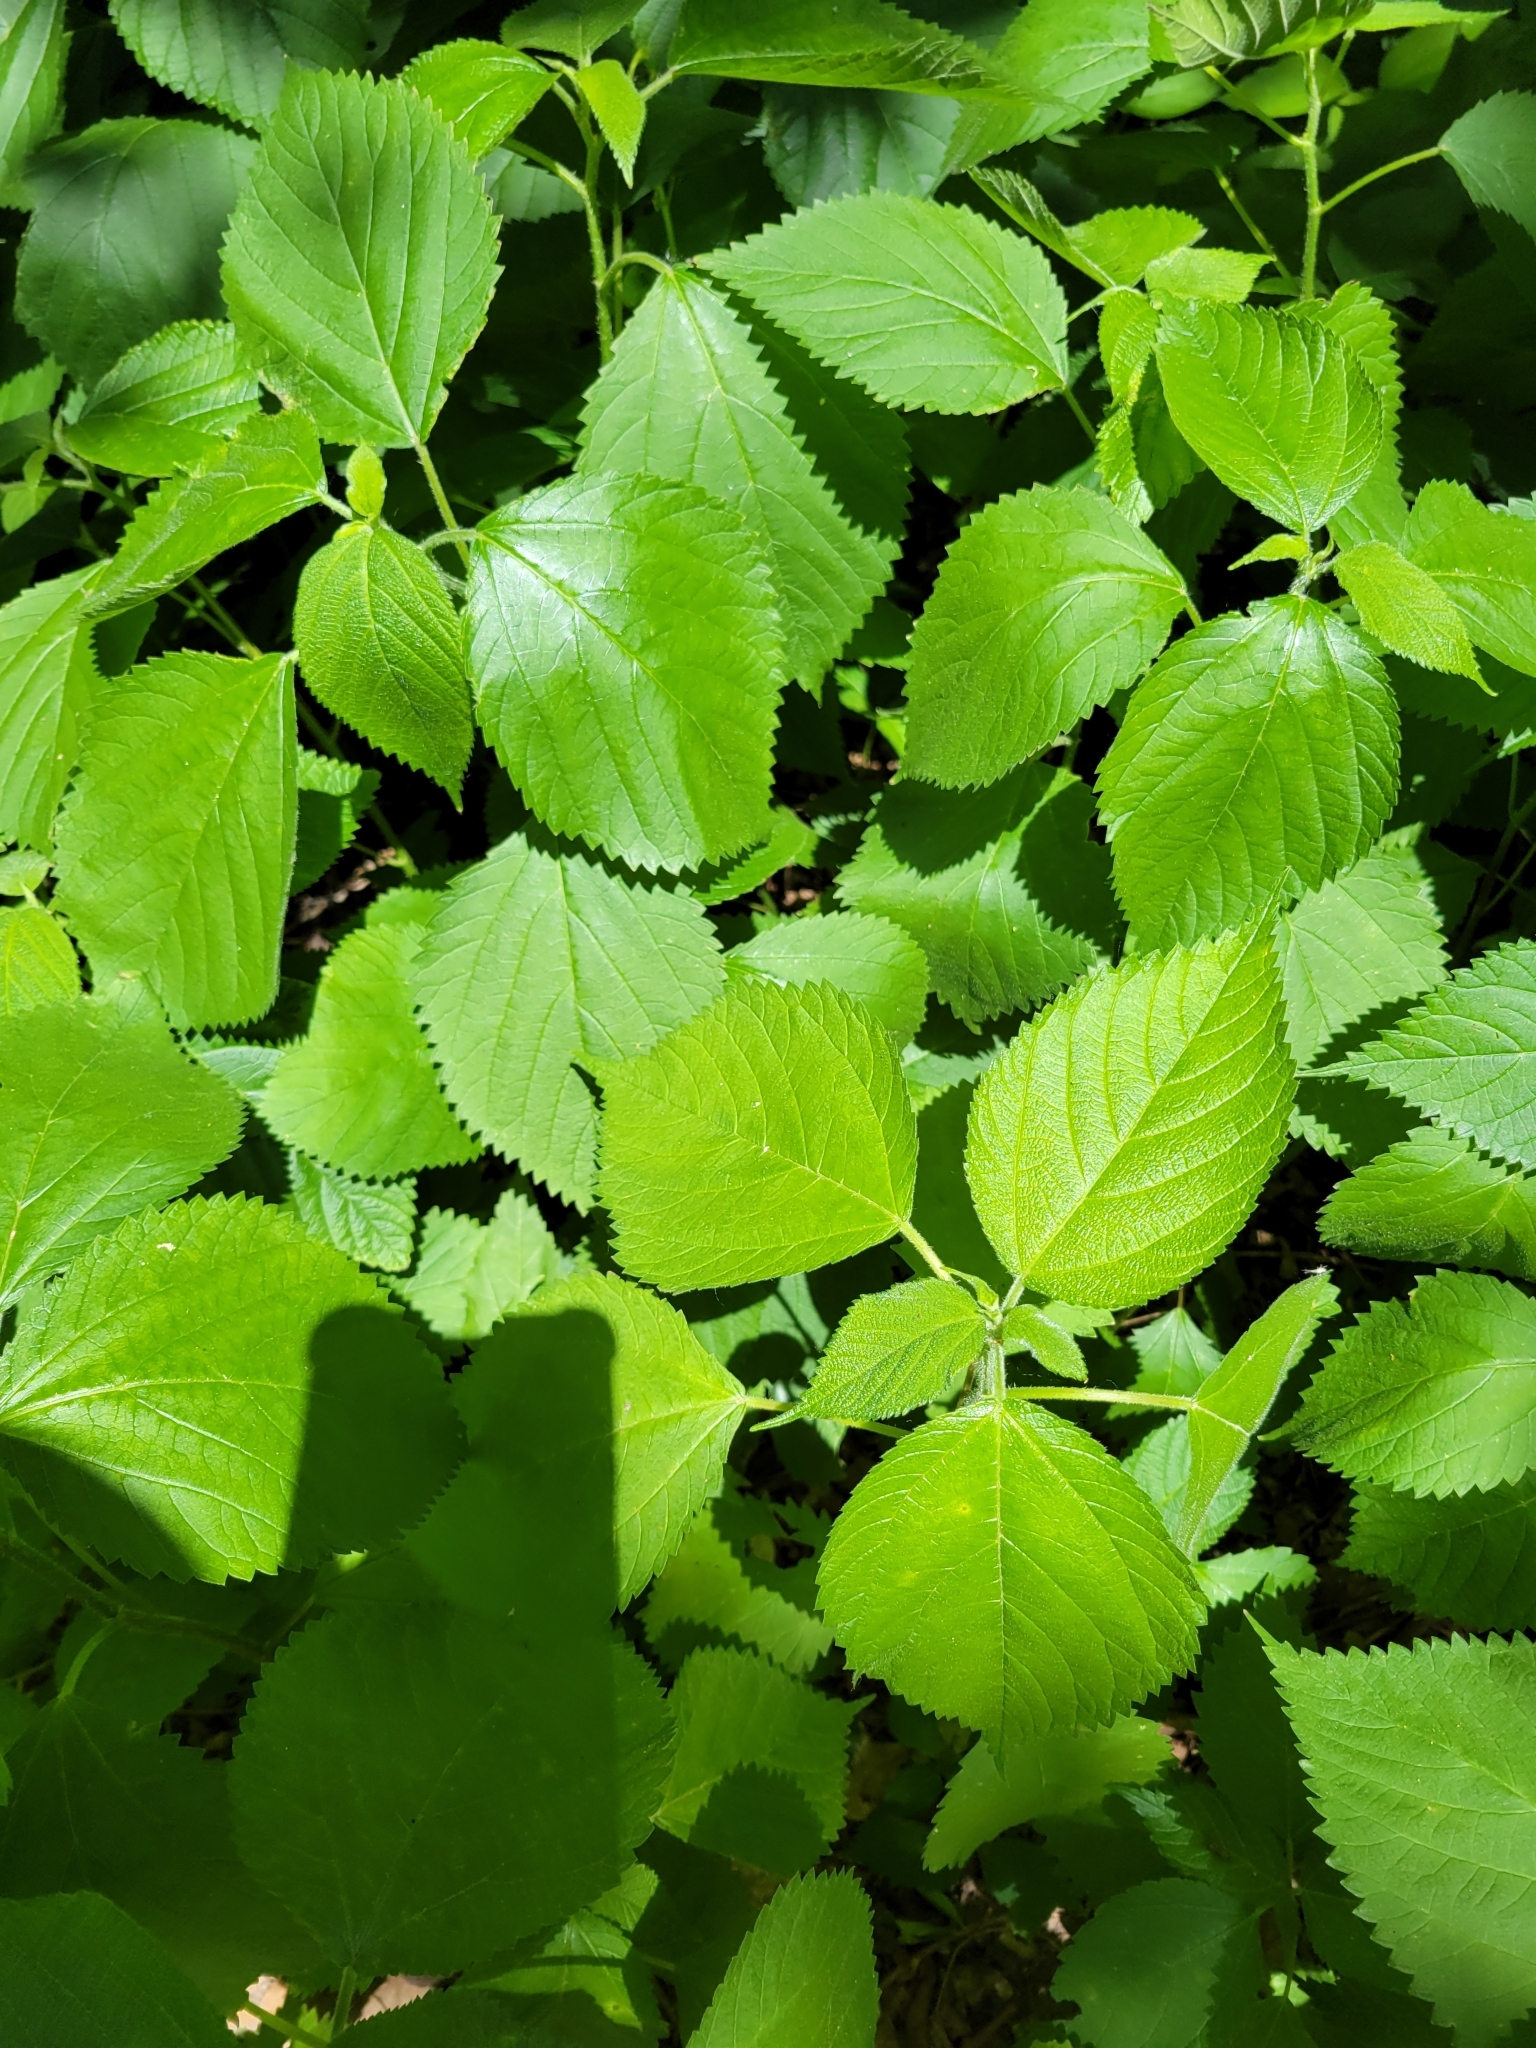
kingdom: Plantae
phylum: Tracheophyta
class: Magnoliopsida
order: Rosales
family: Urticaceae
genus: Laportea
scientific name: Laportea canadensis
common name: Canada nettle
